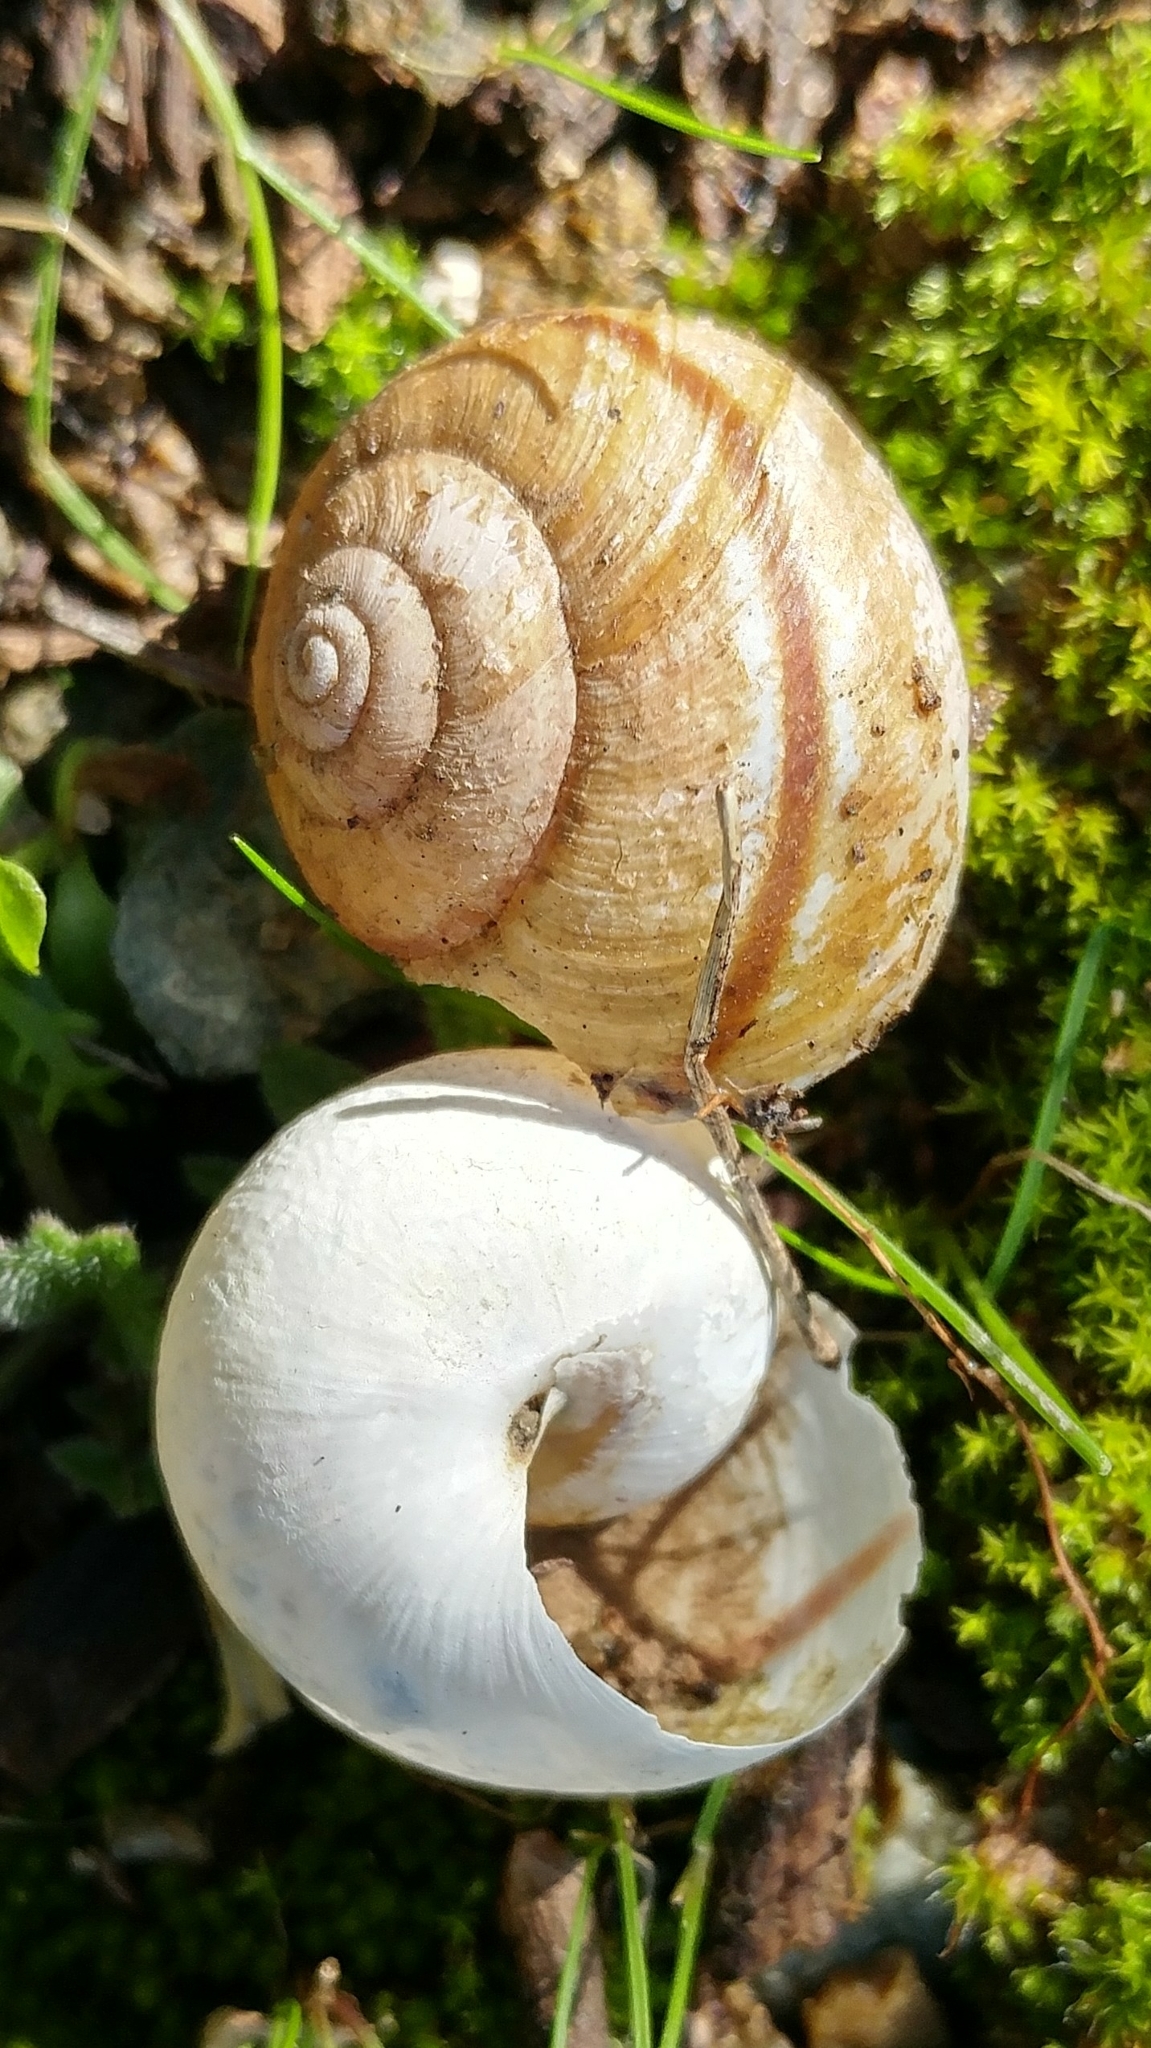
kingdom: Animalia
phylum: Mollusca
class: Gastropoda
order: Stylommatophora
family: Xanthonychidae
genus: Helminthoglypta
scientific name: Helminthoglypta tudiculata
